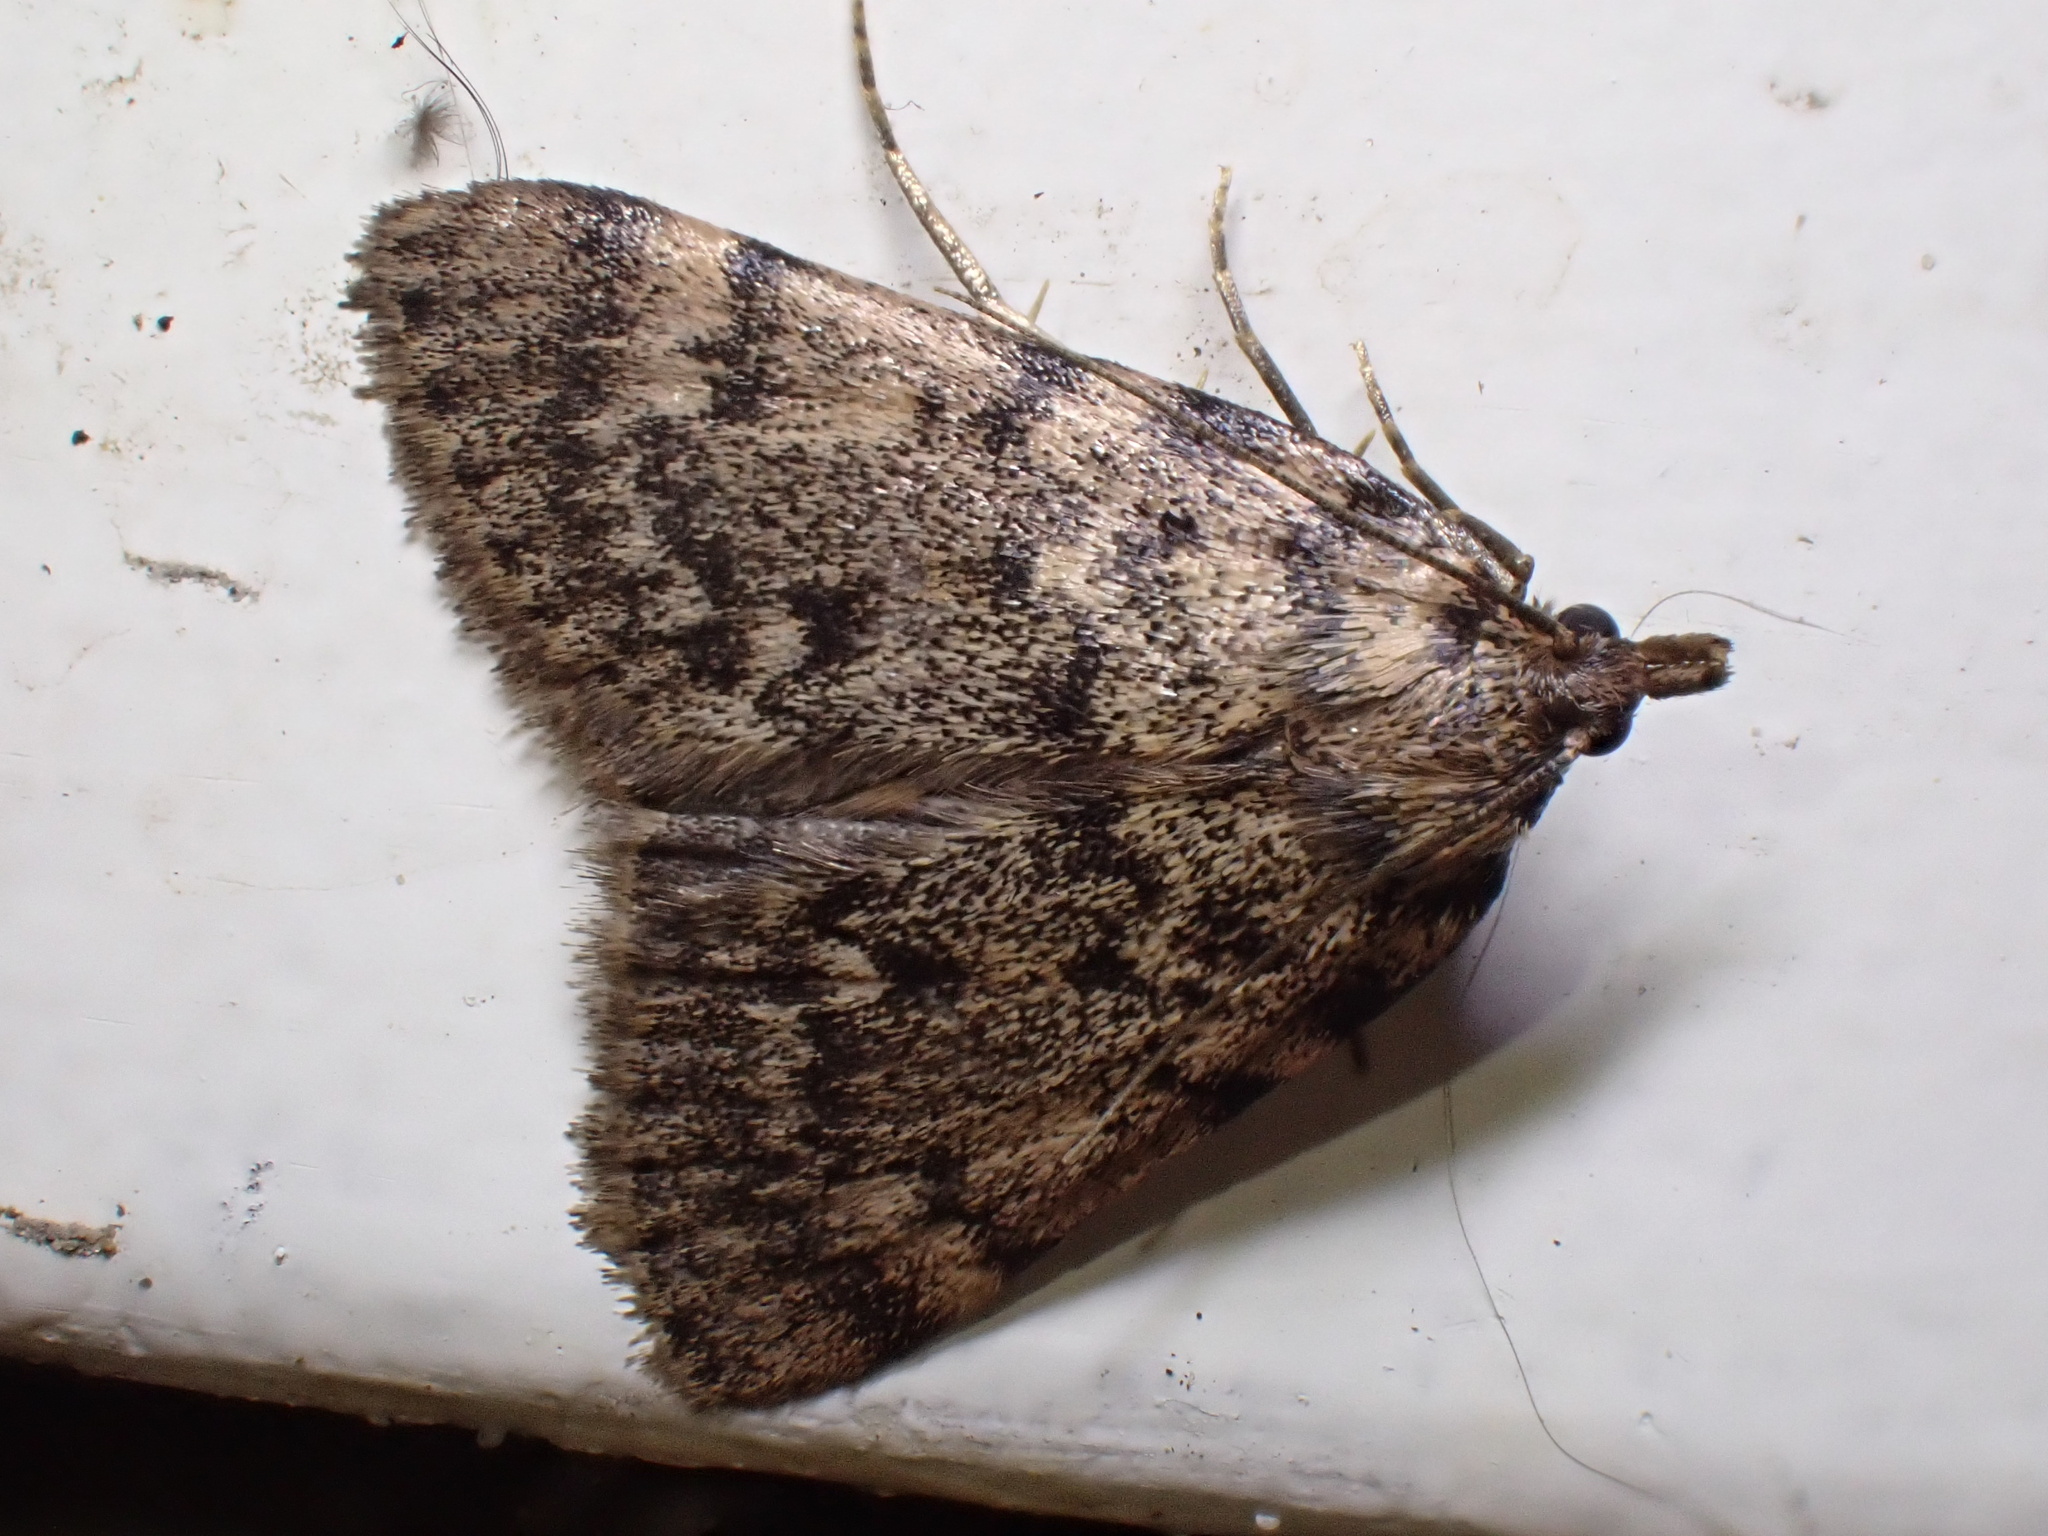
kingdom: Animalia
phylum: Arthropoda
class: Insecta
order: Lepidoptera
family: Pyralidae
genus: Aglossa
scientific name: Aglossa pinguinalis
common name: Large tabby
